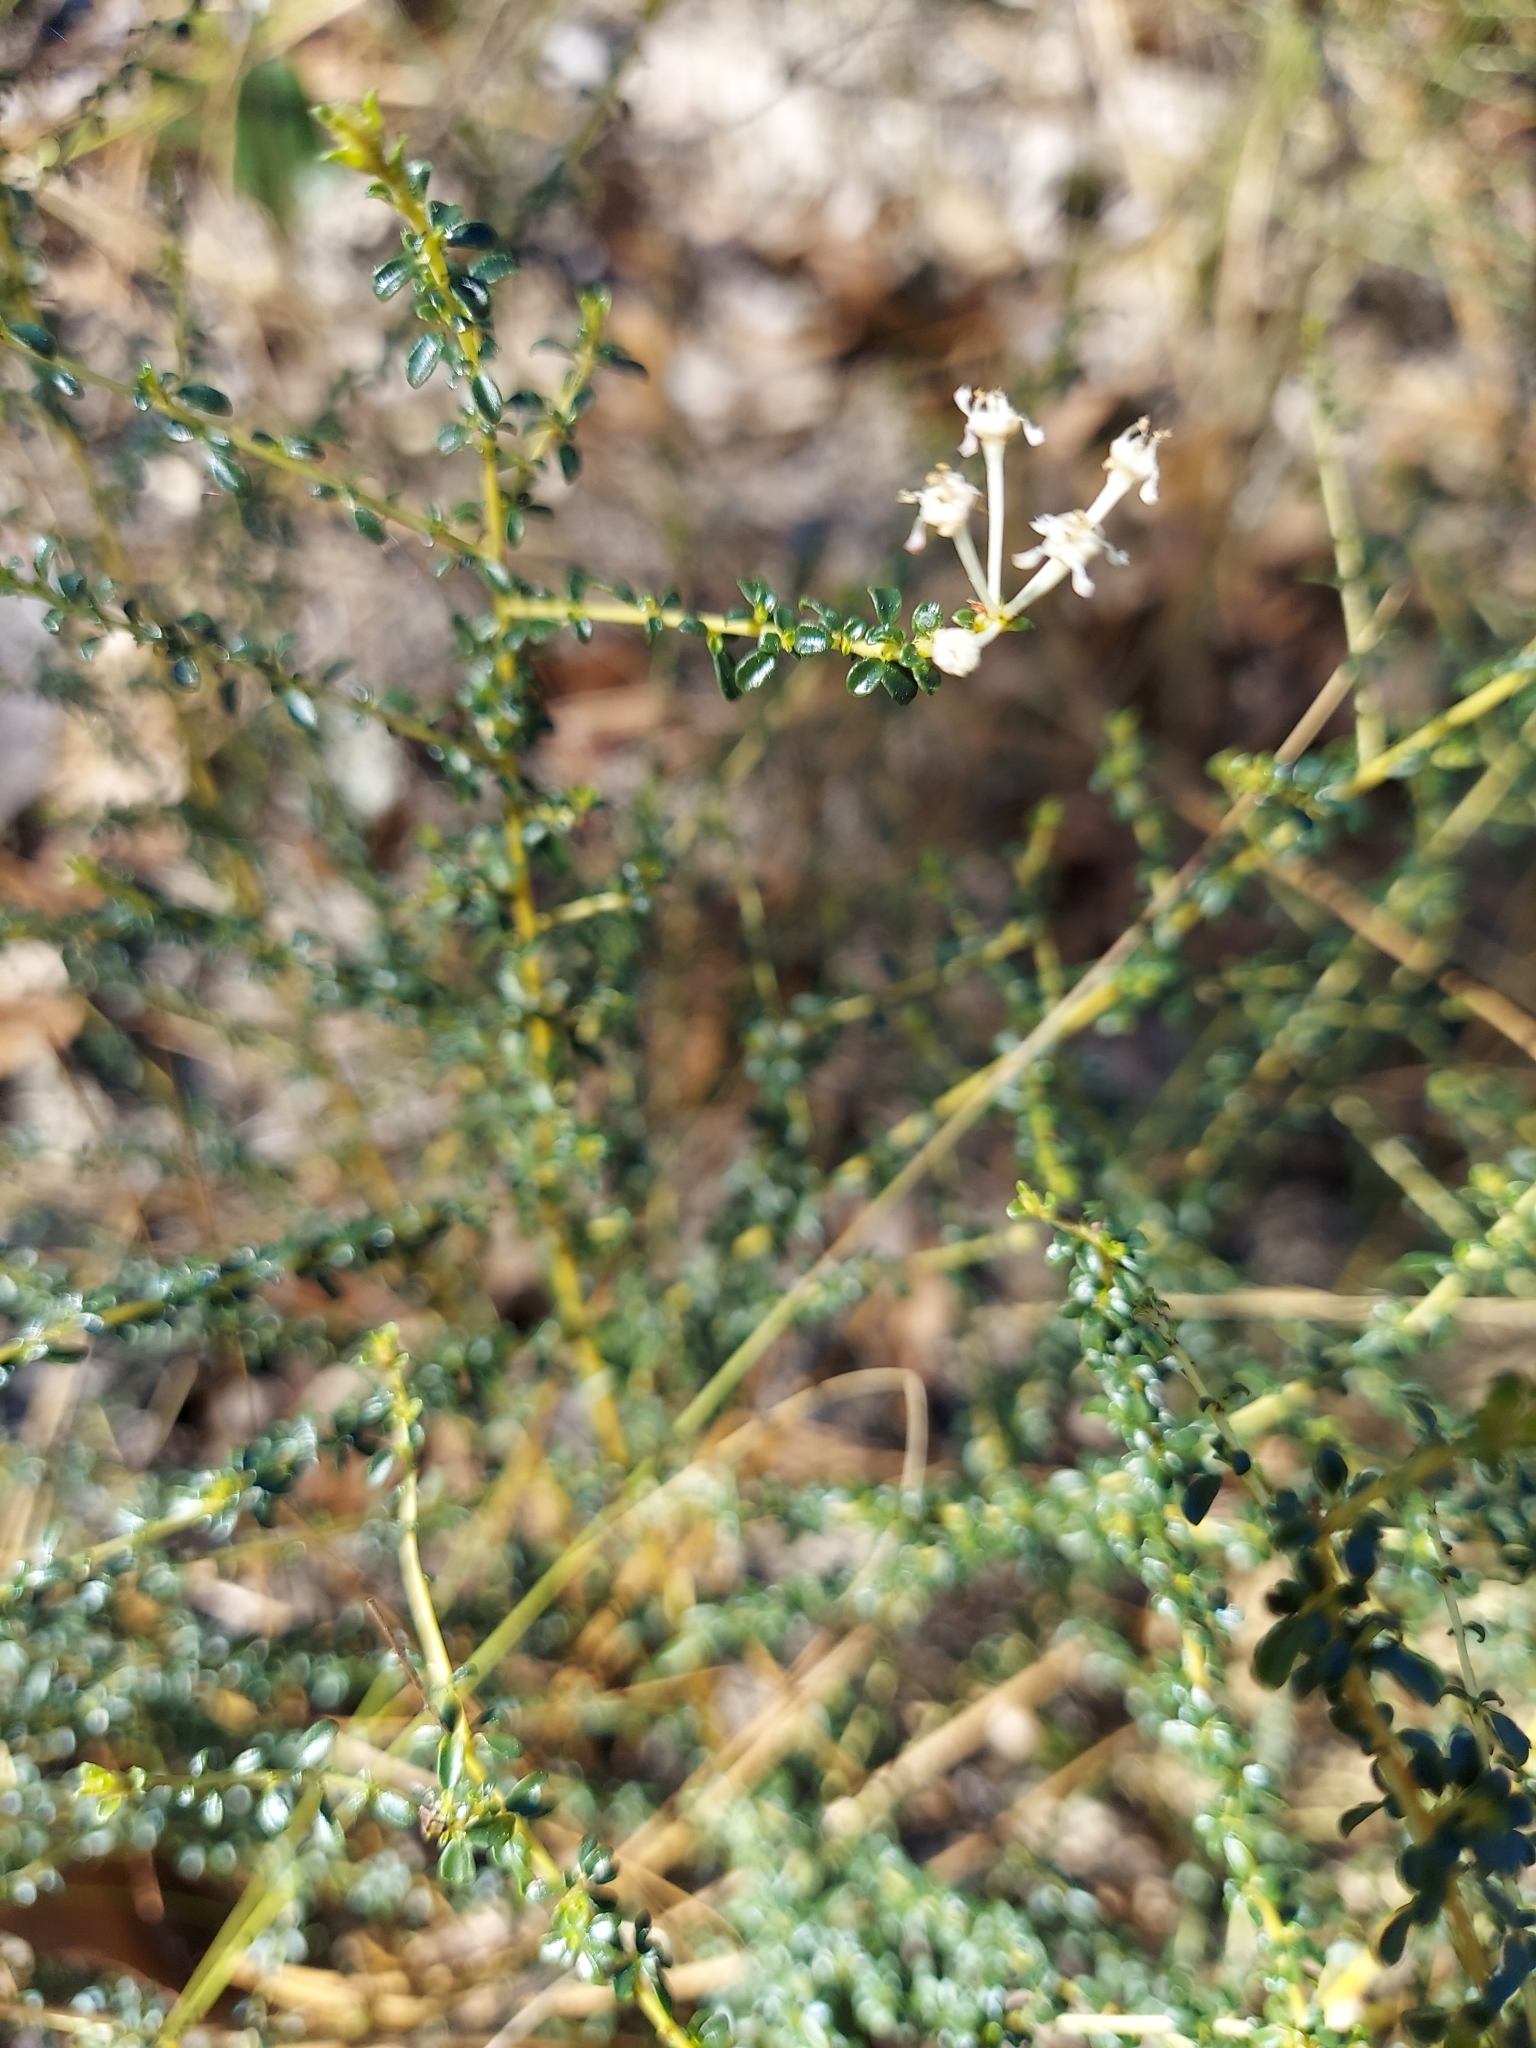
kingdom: Plantae
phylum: Tracheophyta
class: Magnoliopsida
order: Rosales
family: Rhamnaceae
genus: Ceanothus
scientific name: Ceanothus microphyllus
